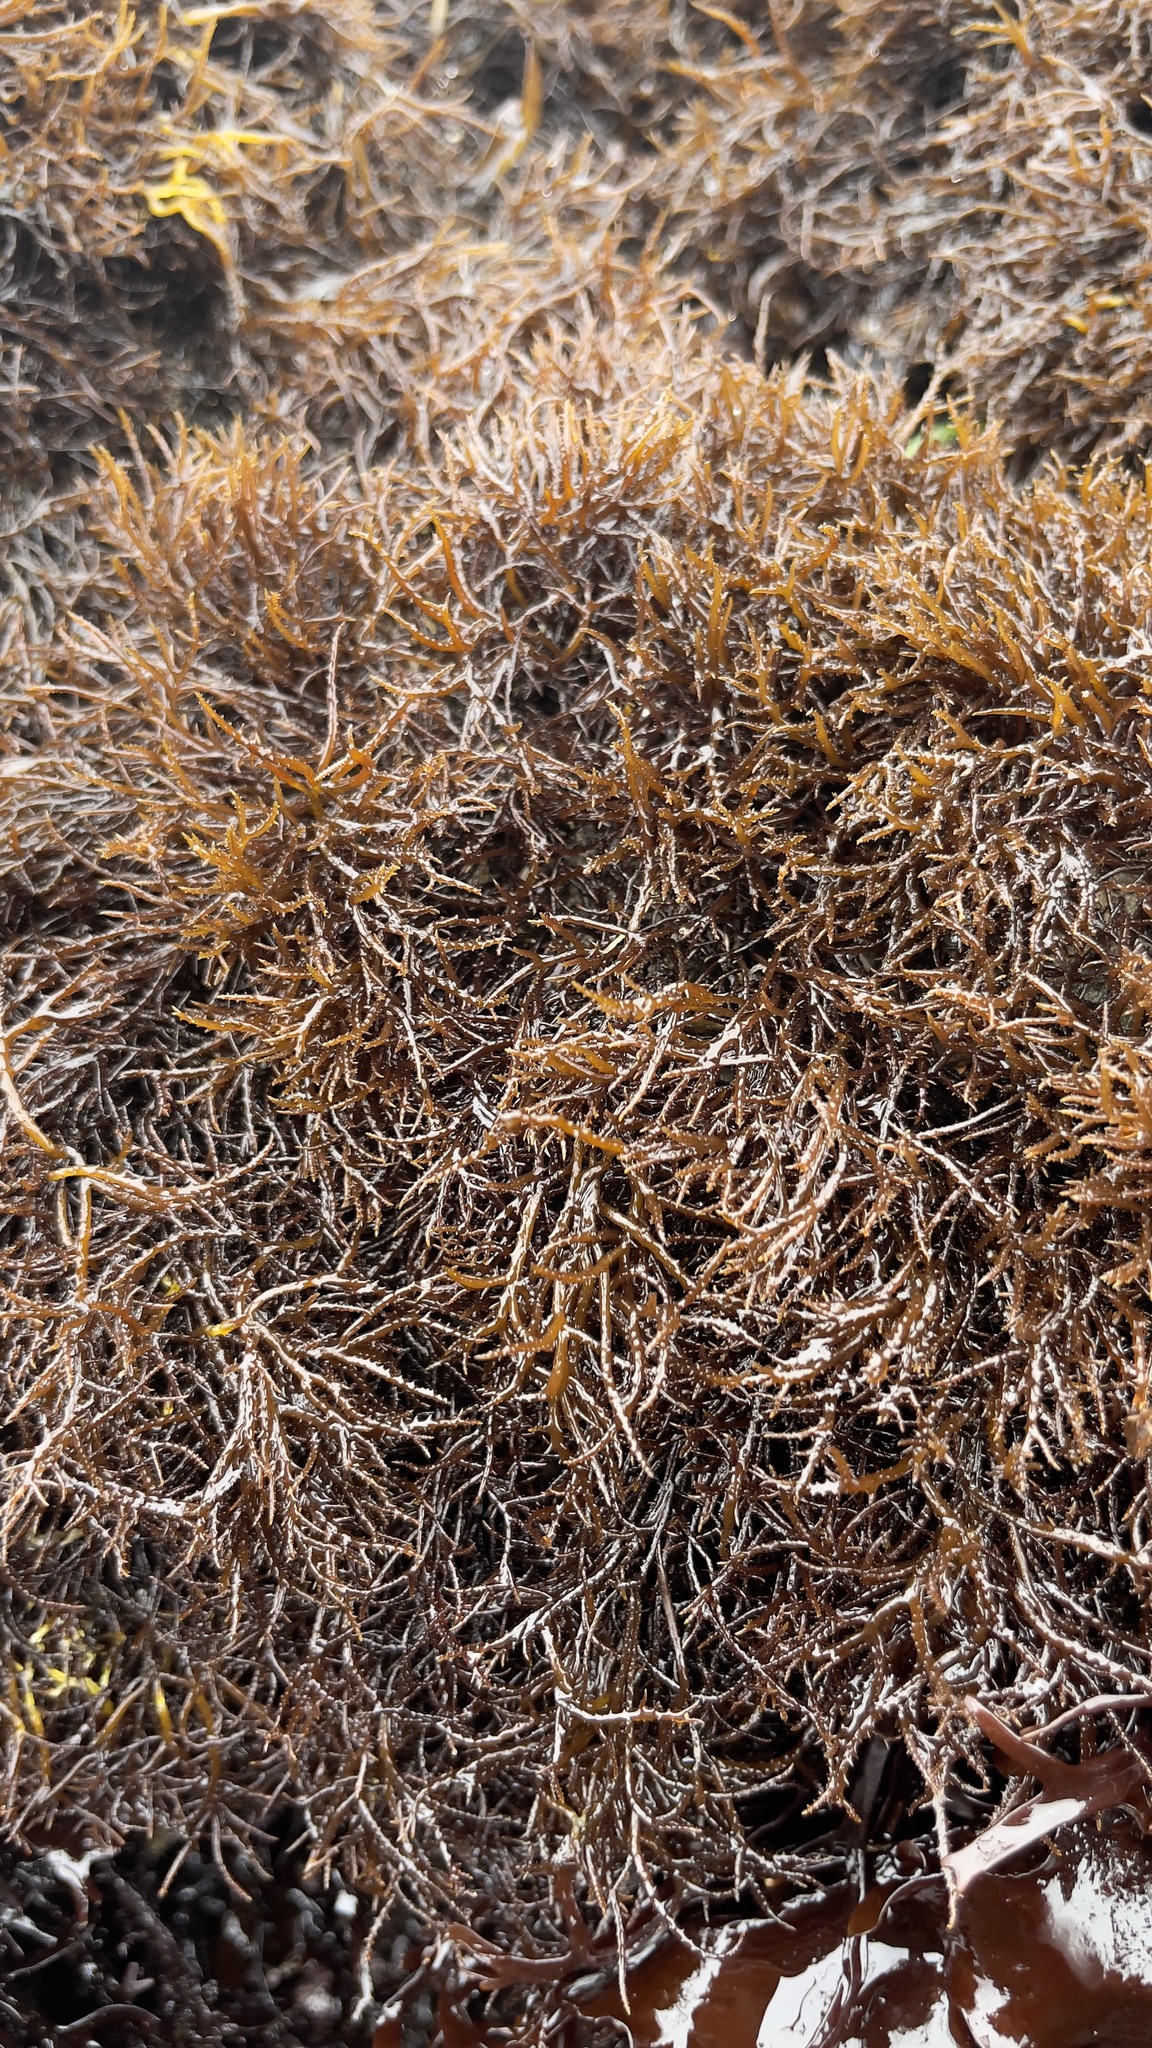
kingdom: Plantae
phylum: Rhodophyta
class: Florideophyceae
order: Gigartinales
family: Endocladiaceae
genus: Endocladia
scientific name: Endocladia muricata
